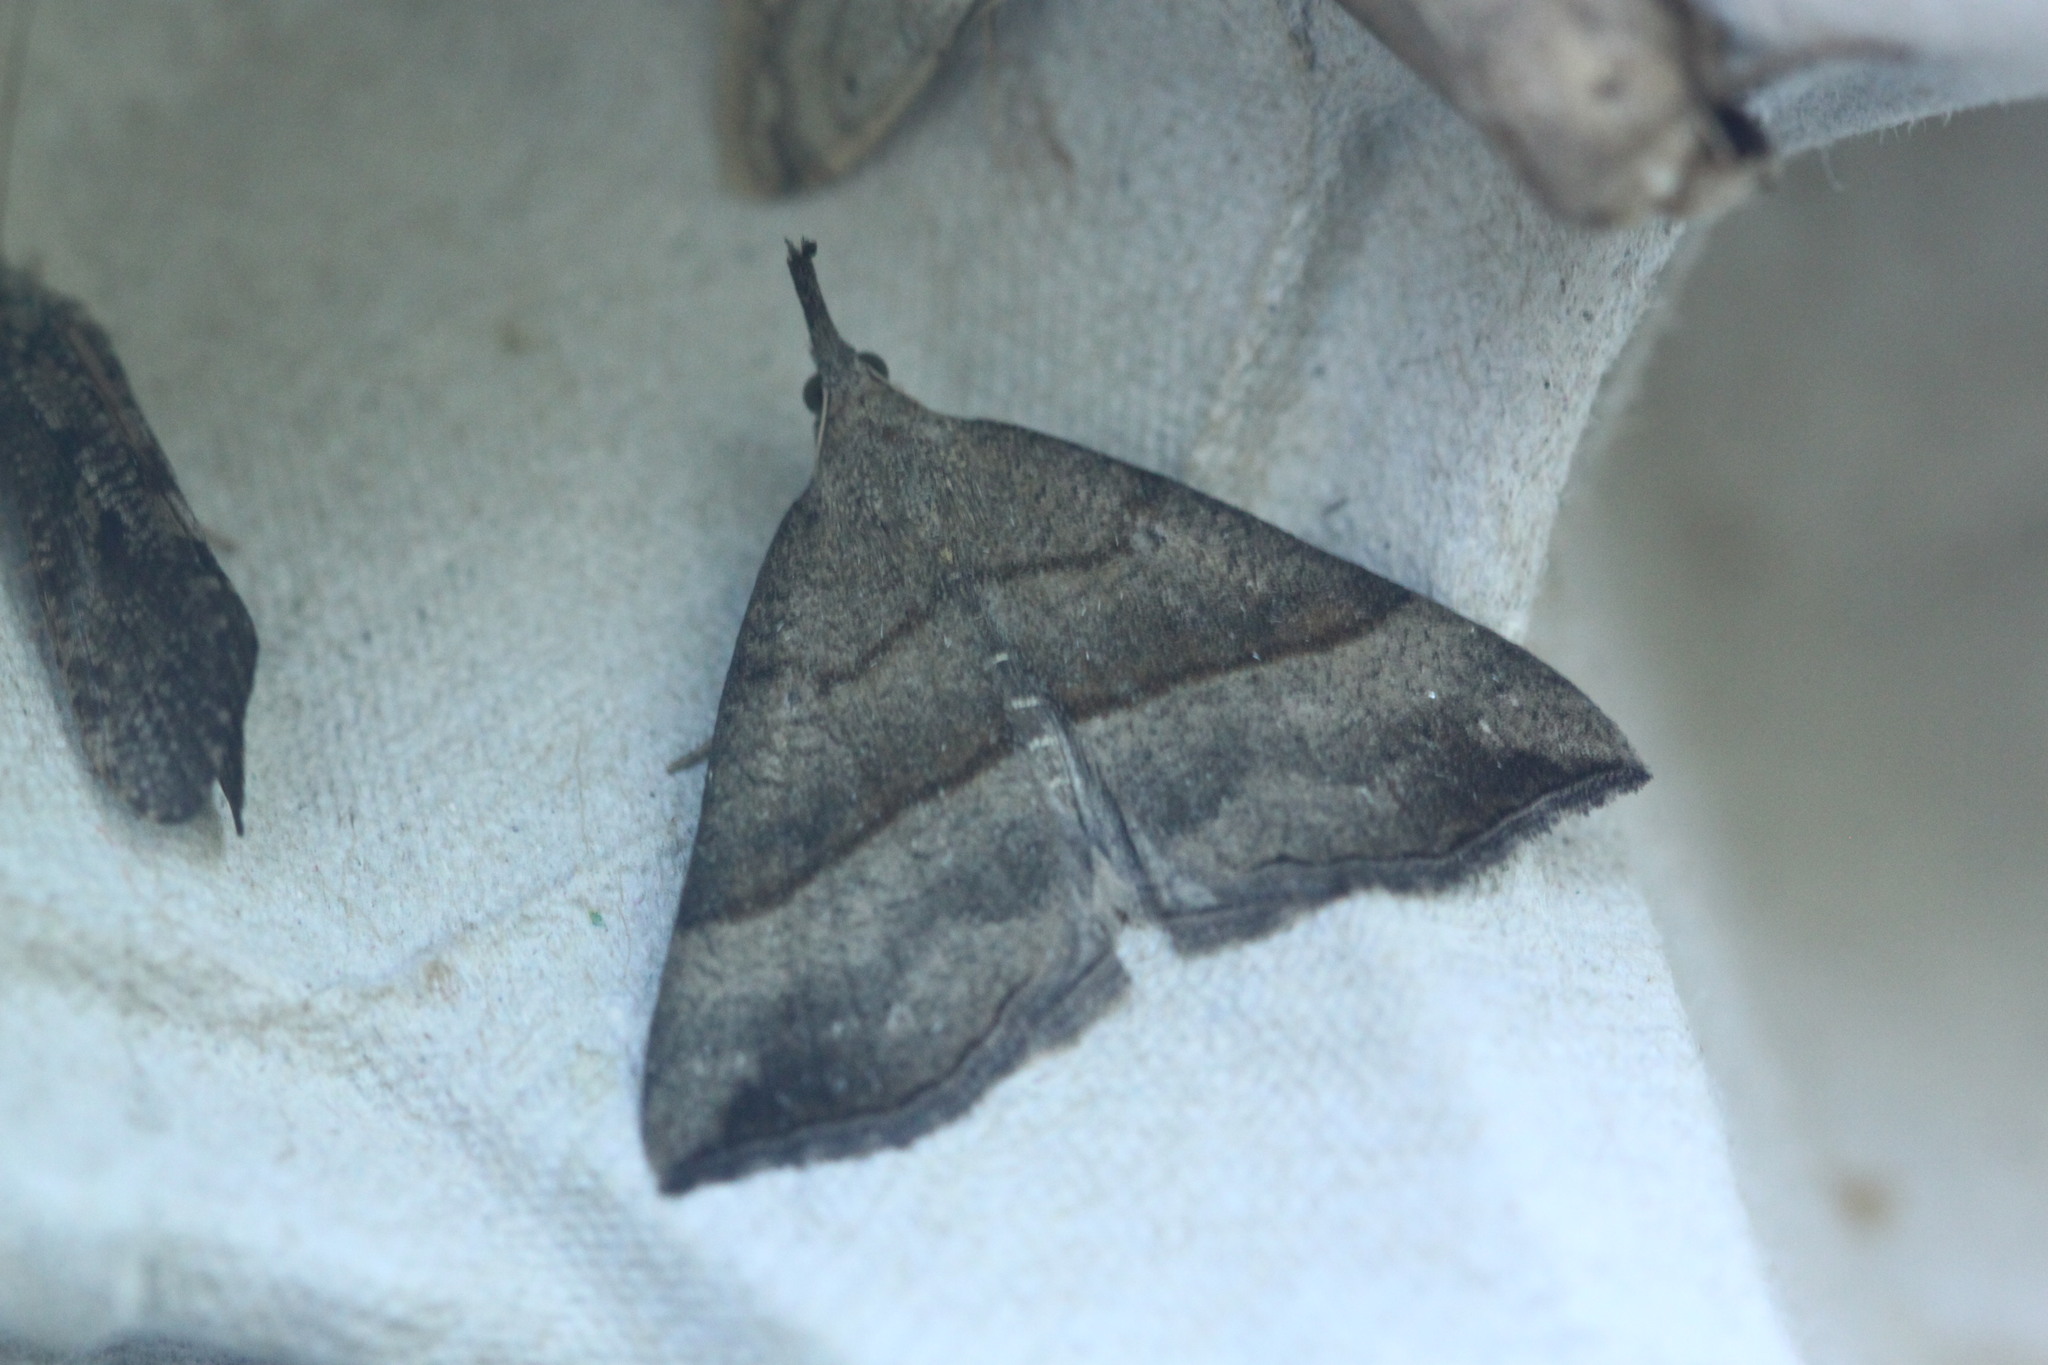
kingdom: Animalia
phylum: Arthropoda
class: Insecta
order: Lepidoptera
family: Erebidae
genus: Hypena
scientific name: Hypena proboscidalis
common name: Snout
